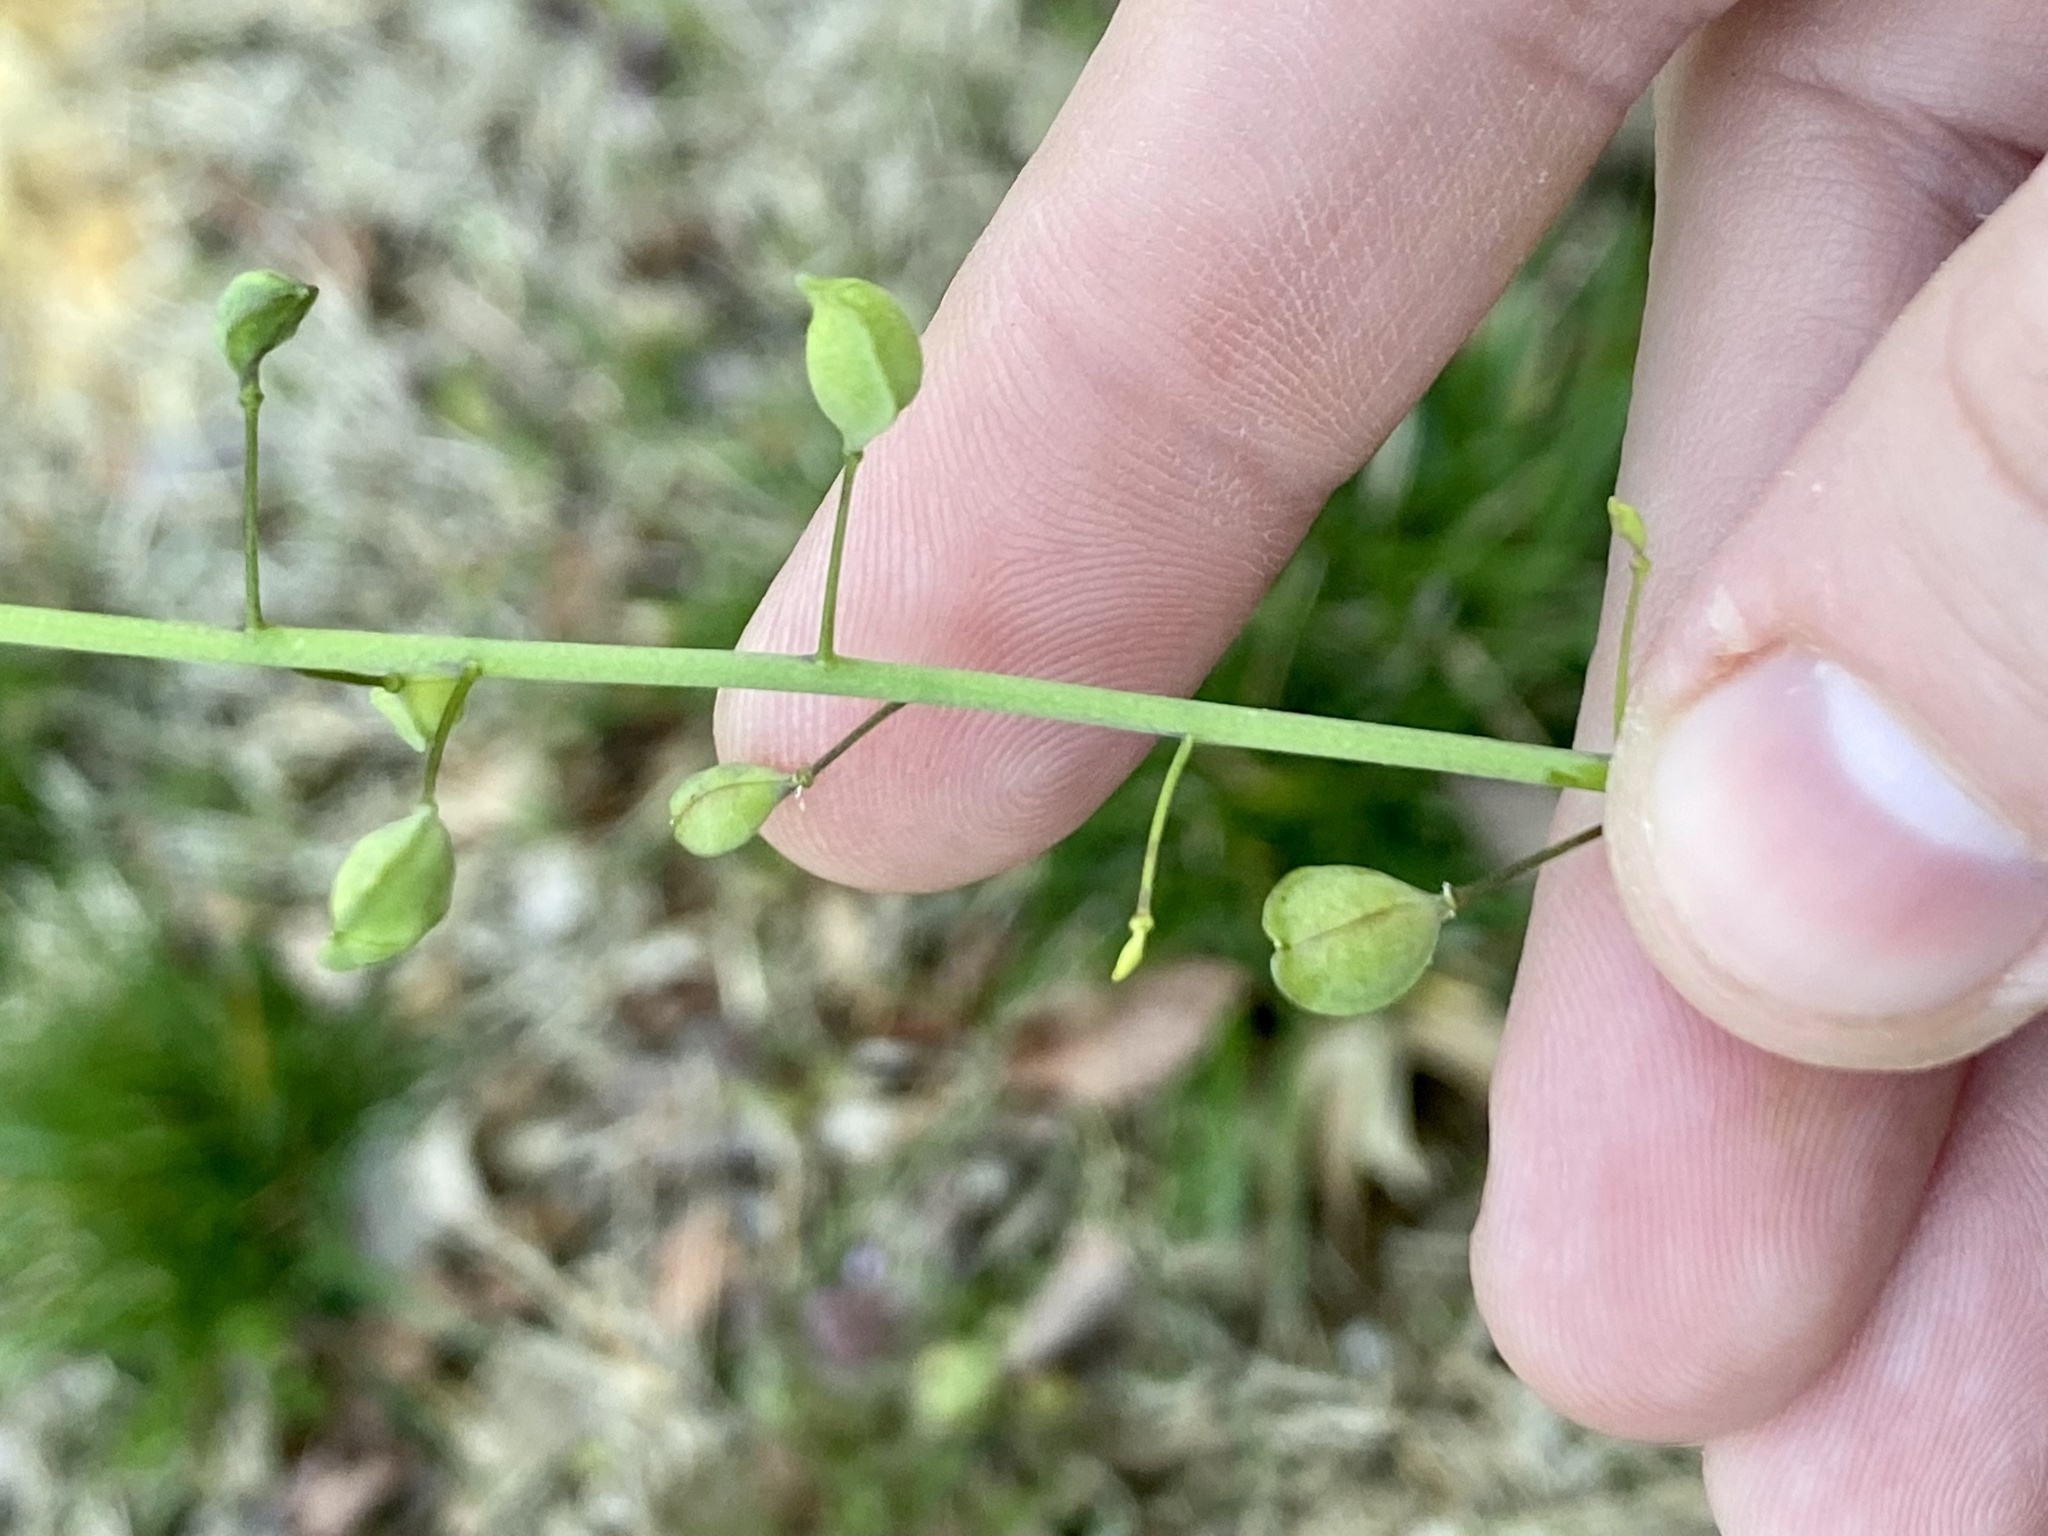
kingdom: Plantae
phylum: Tracheophyta
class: Magnoliopsida
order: Brassicales
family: Brassicaceae
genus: Mummenhoffia
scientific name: Mummenhoffia alliacea
